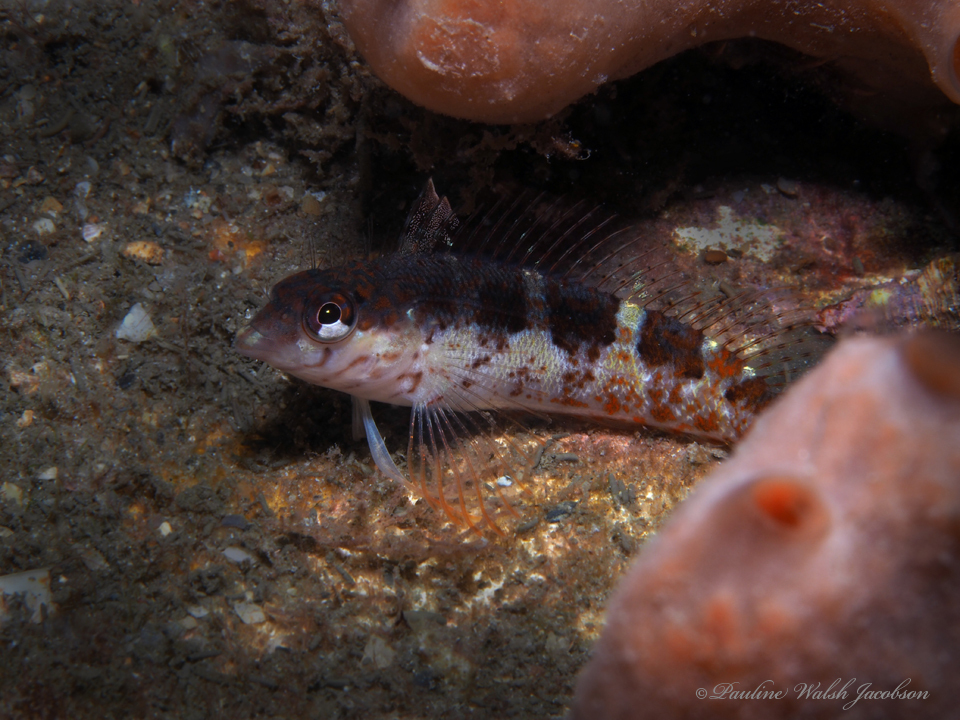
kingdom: Animalia
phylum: Chordata
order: Perciformes
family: Labrisomidae
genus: Malacoctenus
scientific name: Malacoctenus triangulatus
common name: Saddled blenny
